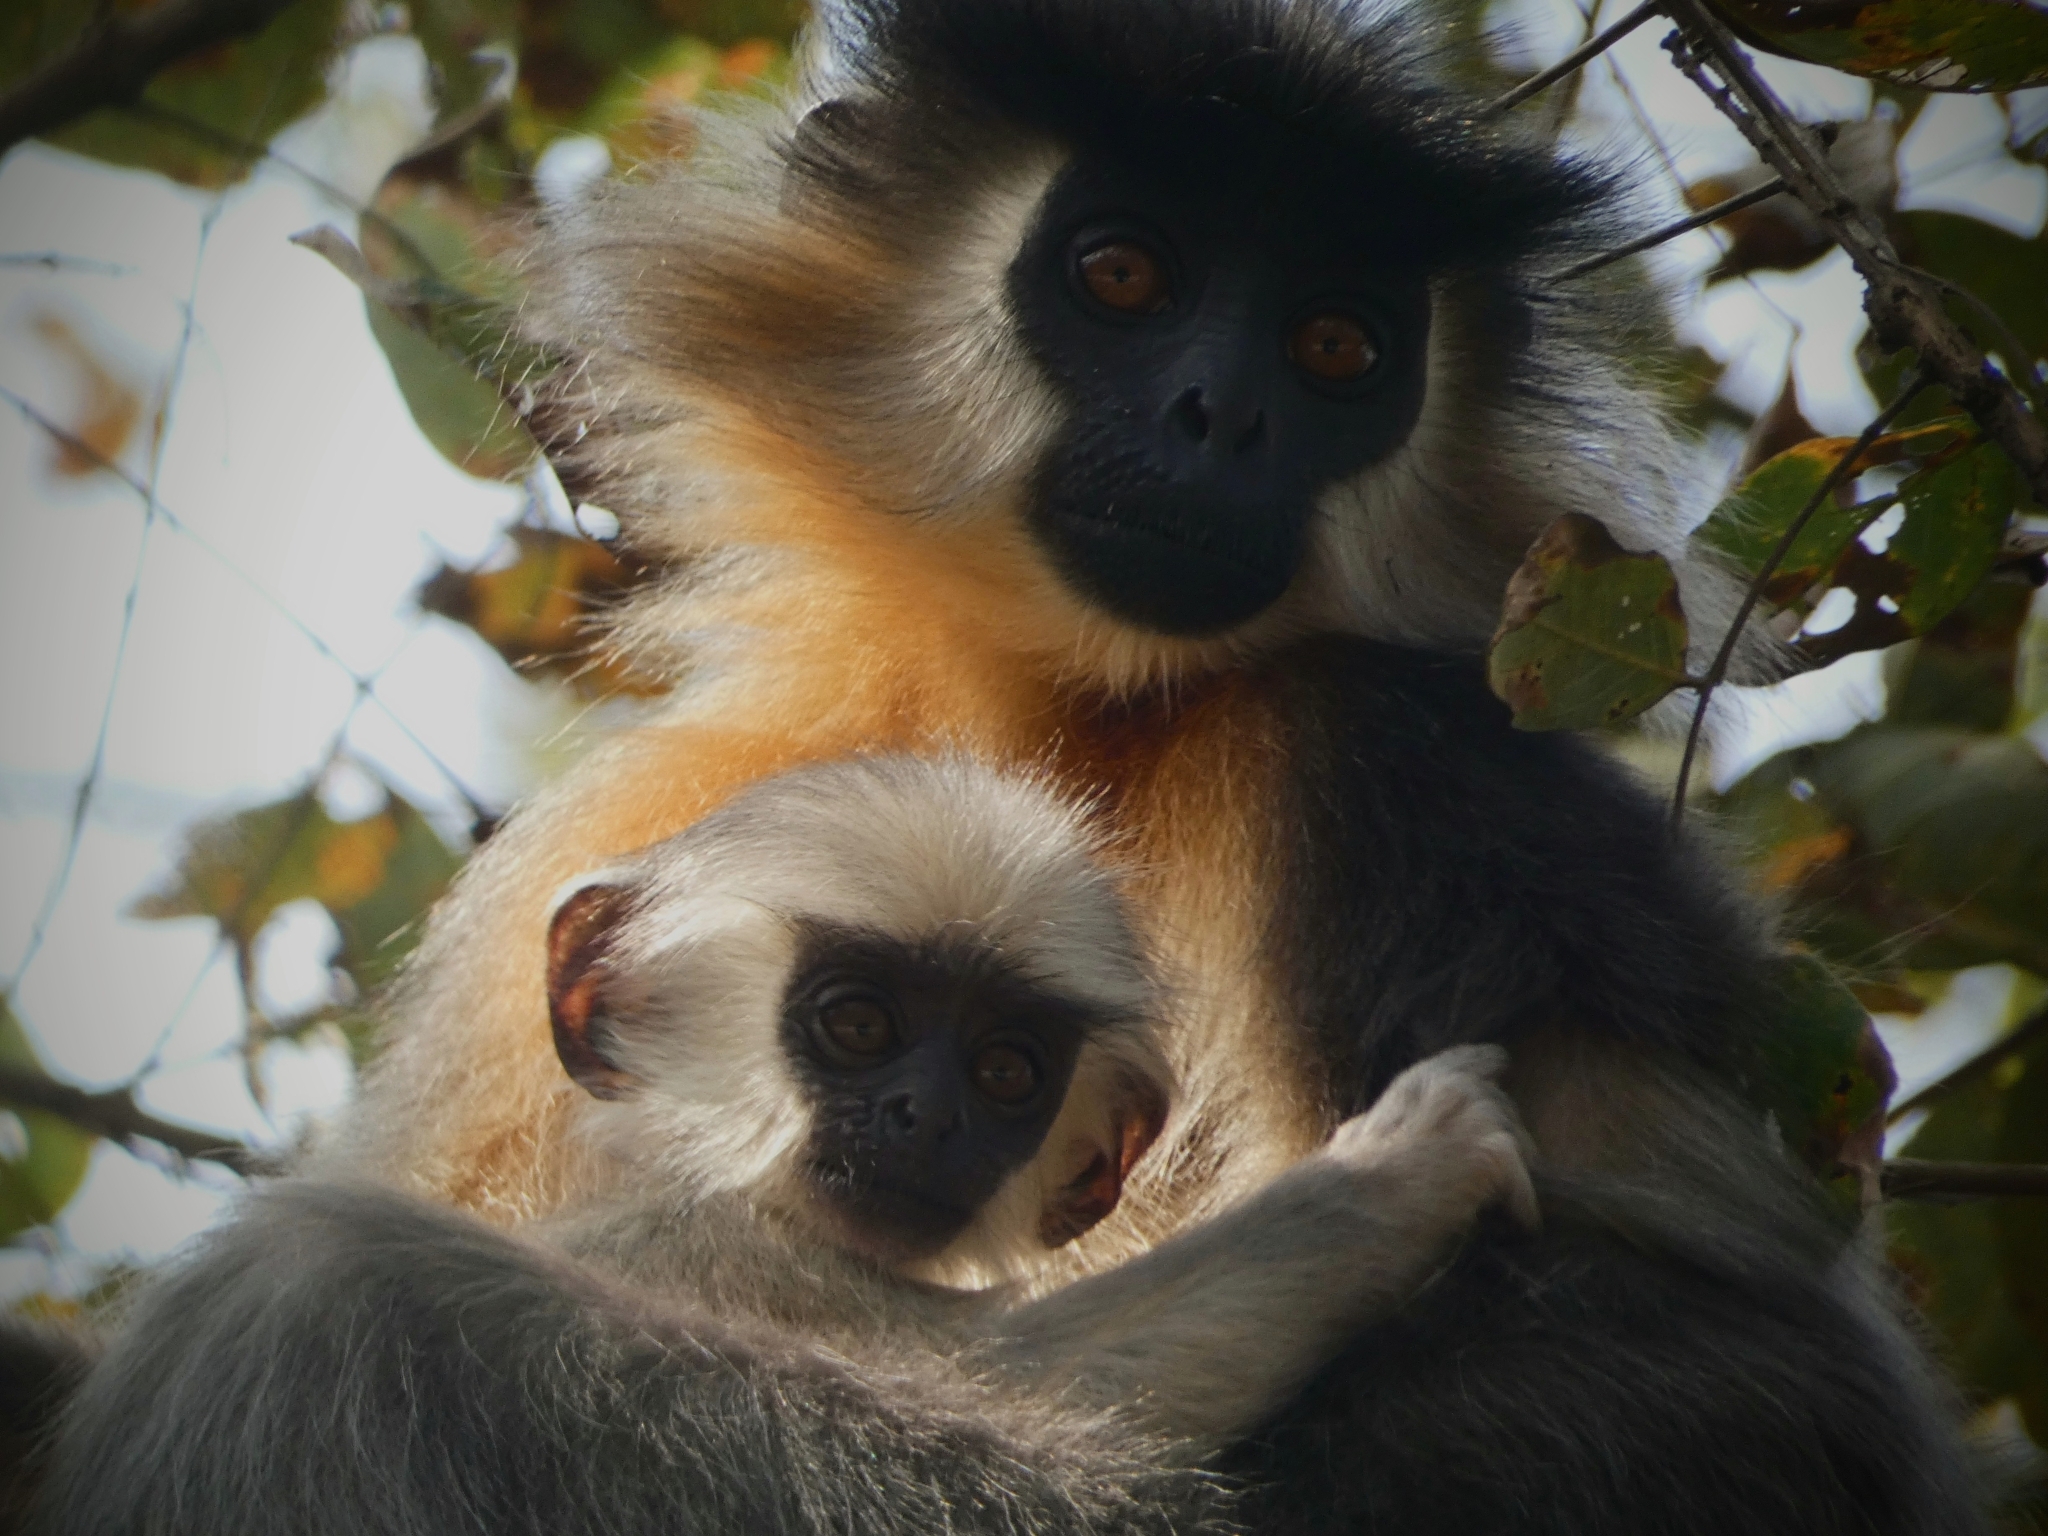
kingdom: Animalia
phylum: Chordata
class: Mammalia
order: Primates
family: Cercopithecidae
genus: Trachypithecus
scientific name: Trachypithecus pileatus
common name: Capped langur
